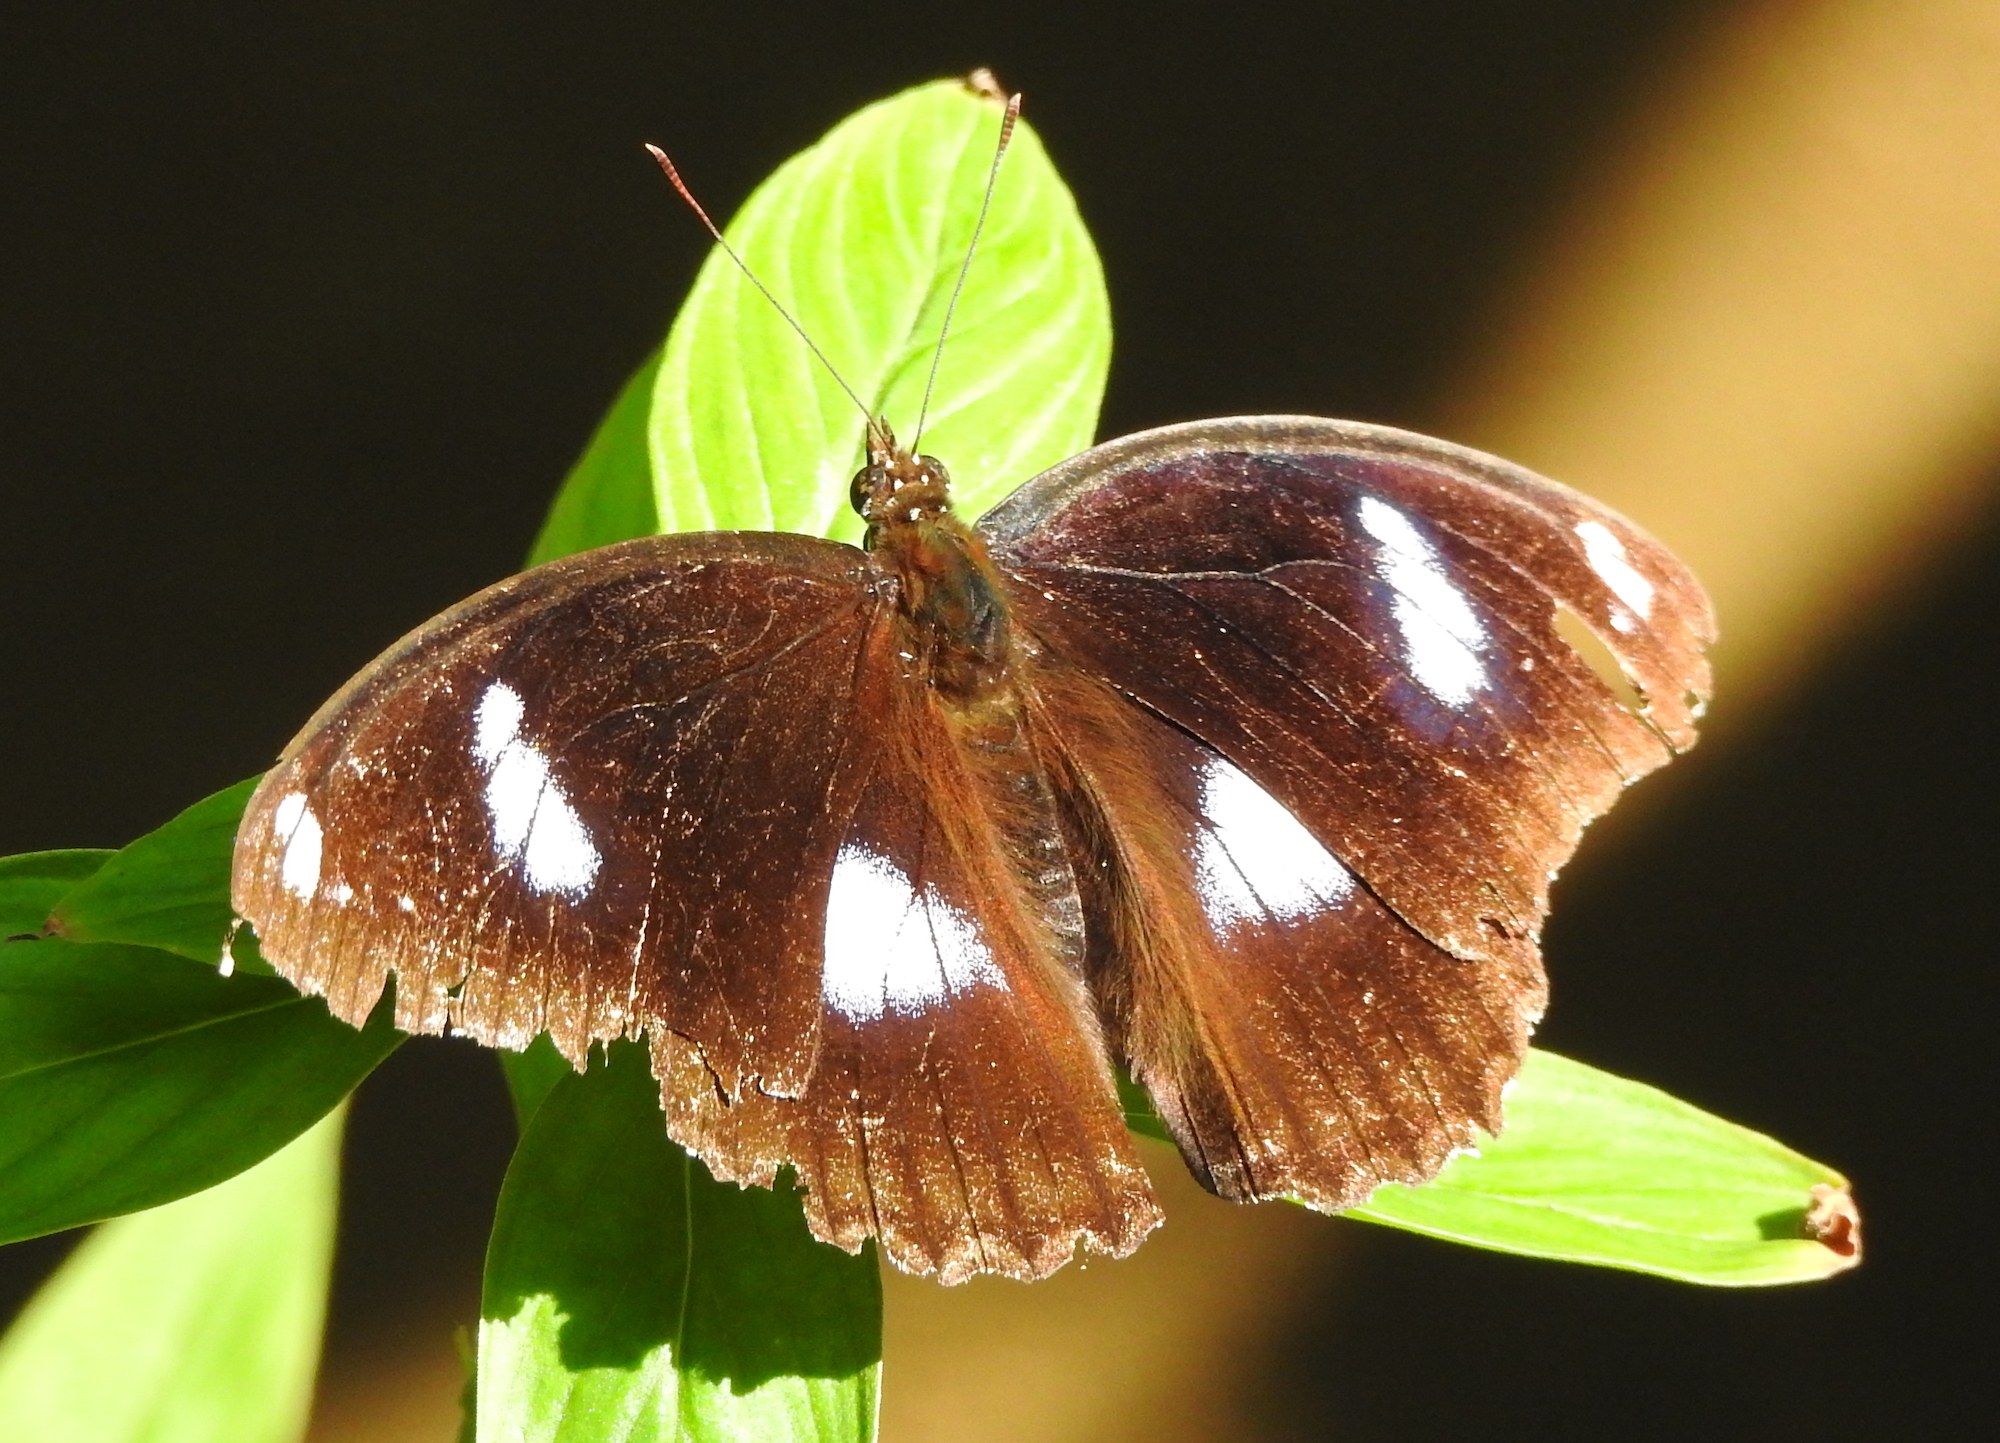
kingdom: Animalia
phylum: Arthropoda
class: Insecta
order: Lepidoptera
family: Nymphalidae
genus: Hypolimnas
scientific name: Hypolimnas bolina
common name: Great eggfly
